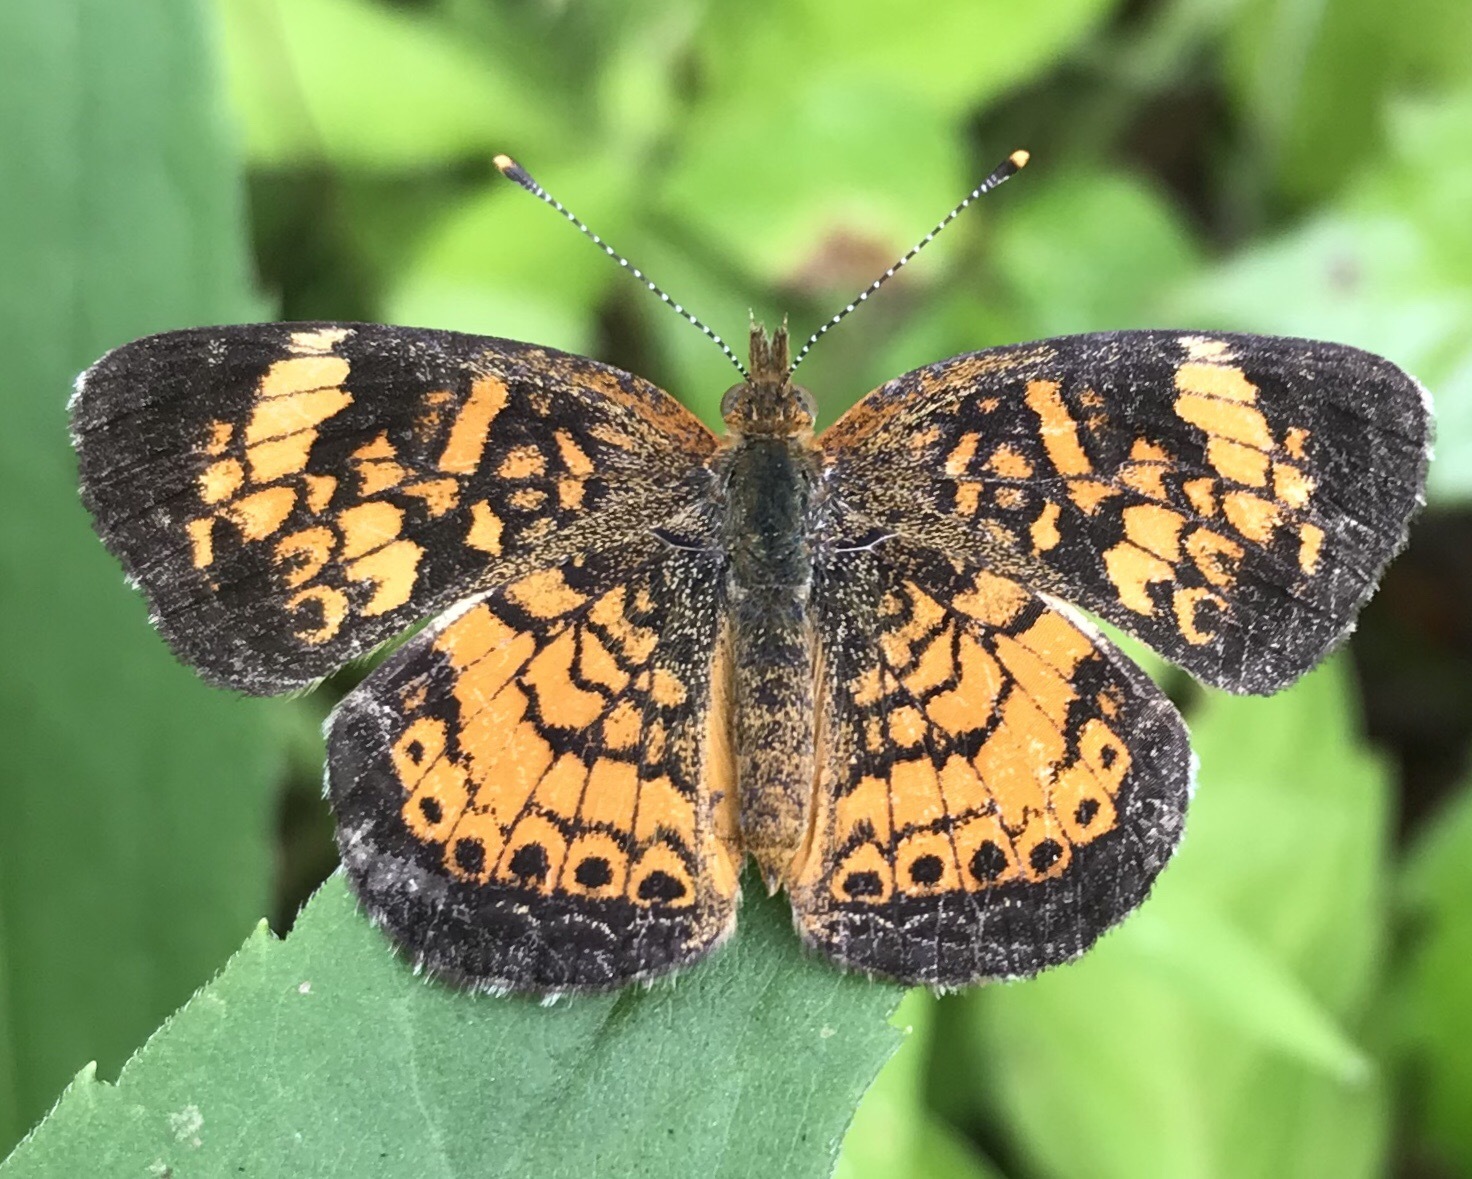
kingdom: Animalia
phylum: Arthropoda
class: Insecta
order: Lepidoptera
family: Nymphalidae
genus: Phyciodes
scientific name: Phyciodes tharos
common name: Pearl crescent
